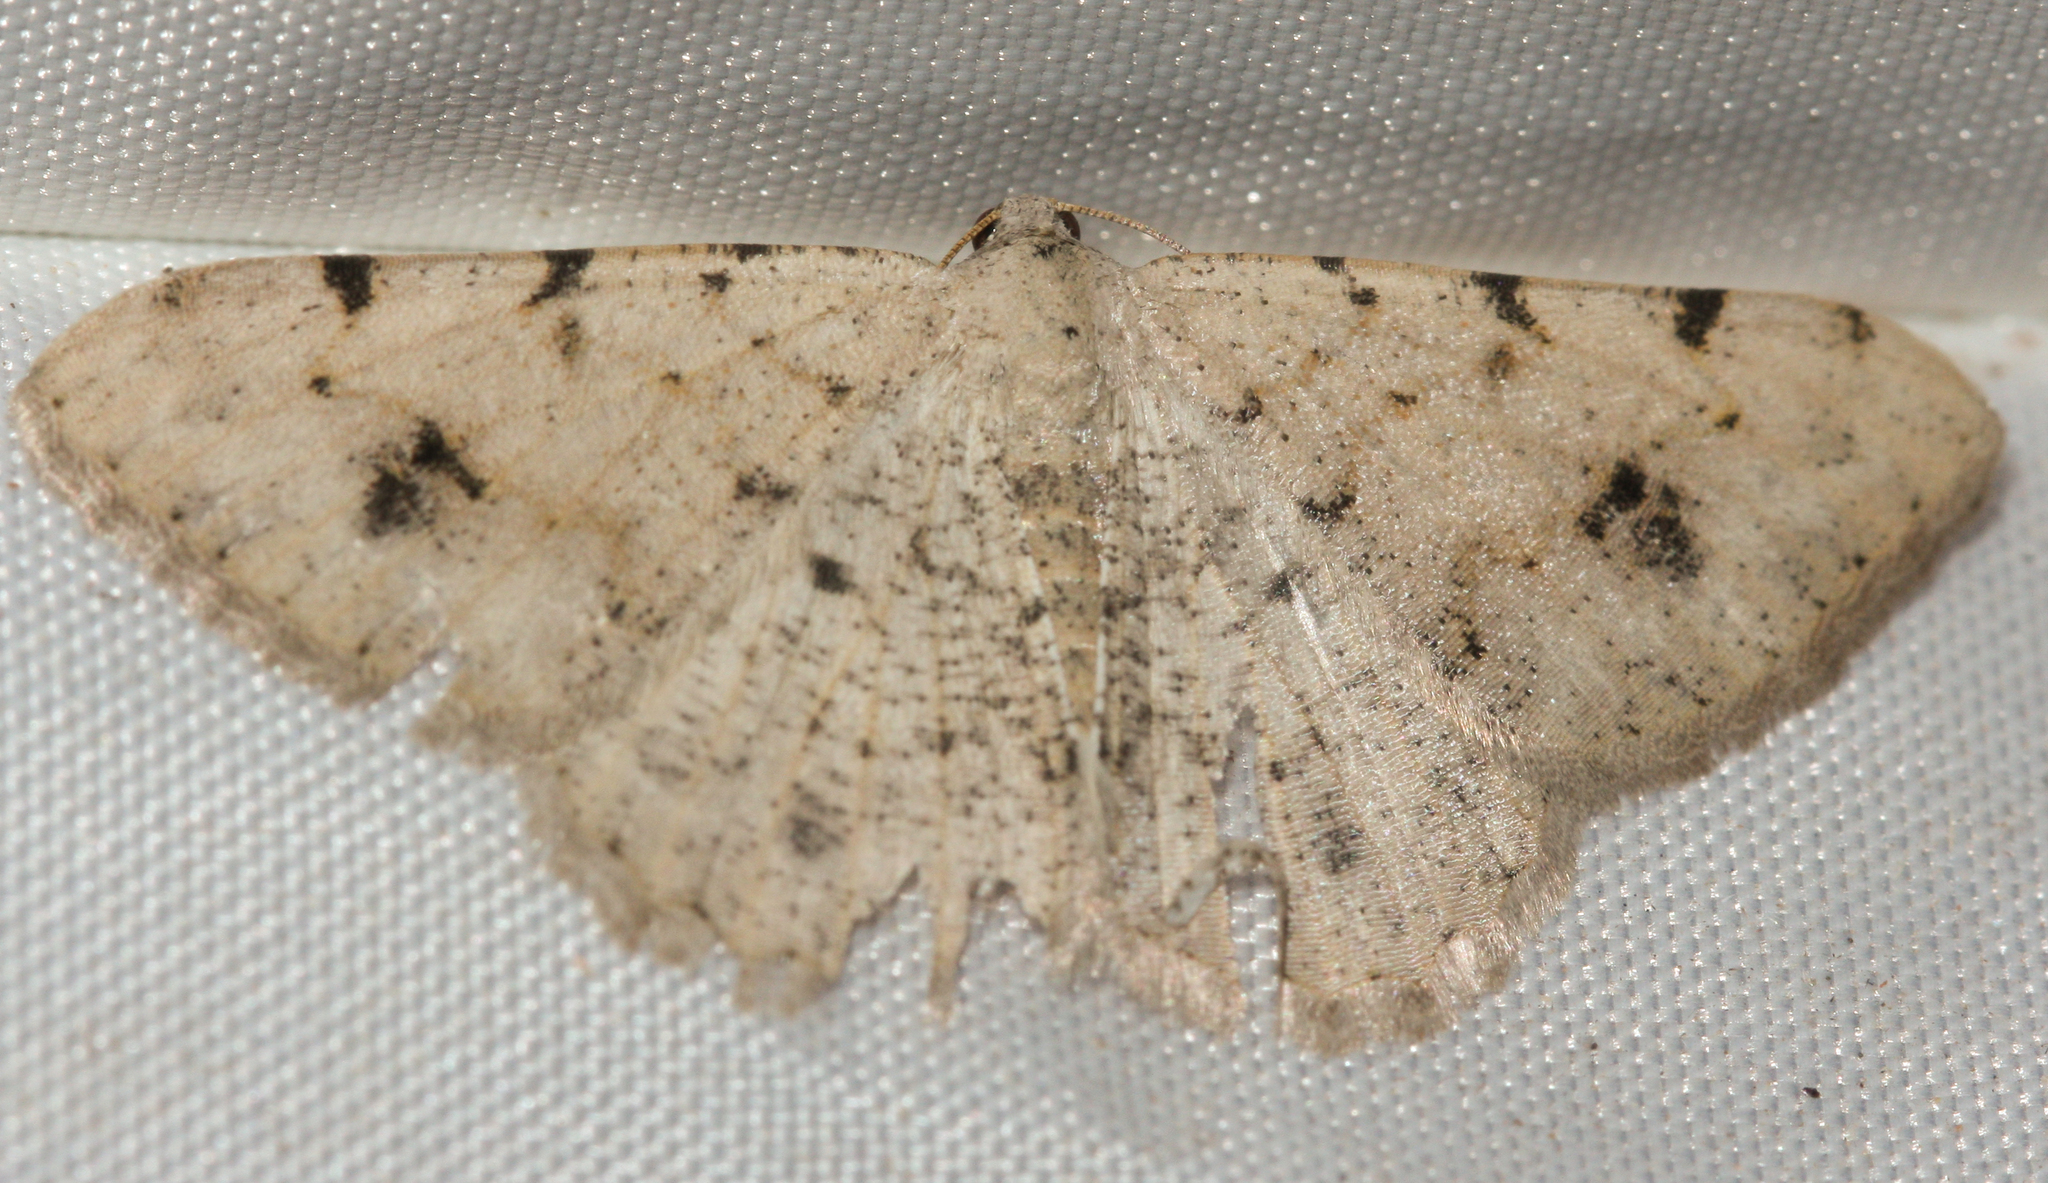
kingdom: Animalia
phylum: Arthropoda
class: Insecta
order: Lepidoptera
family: Geometridae
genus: Digrammia
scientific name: Digrammia colorata
